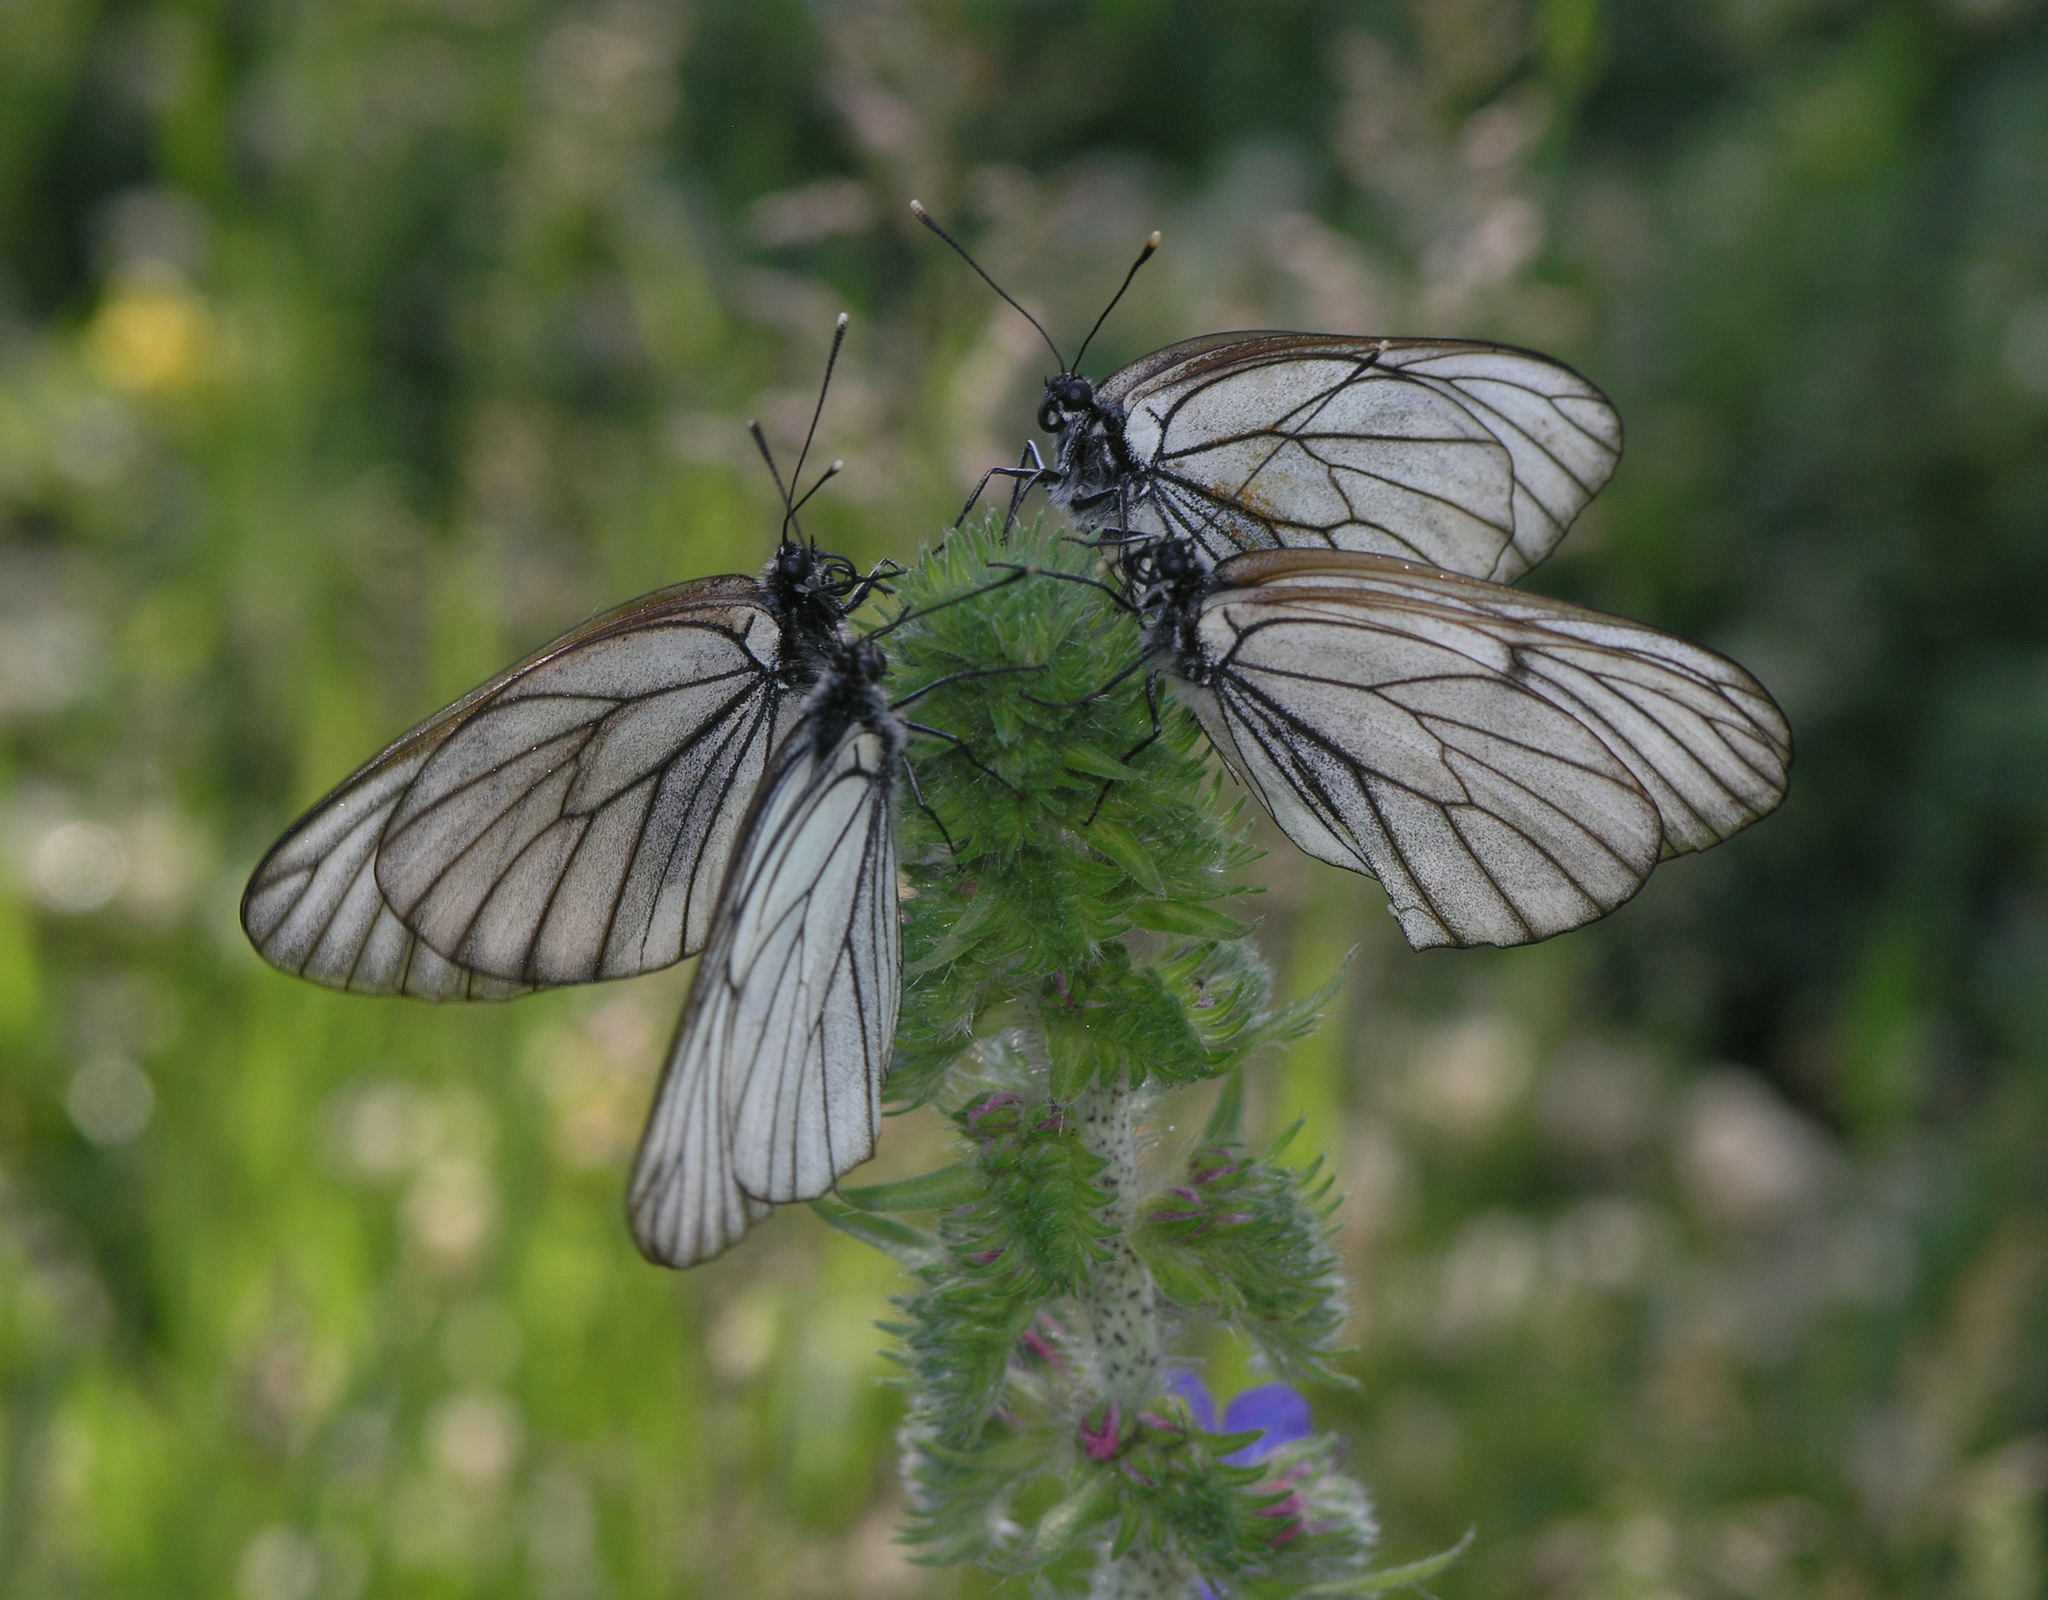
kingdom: Animalia
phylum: Arthropoda
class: Insecta
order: Lepidoptera
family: Pieridae
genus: Aporia
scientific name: Aporia crataegi
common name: Black-veined white
